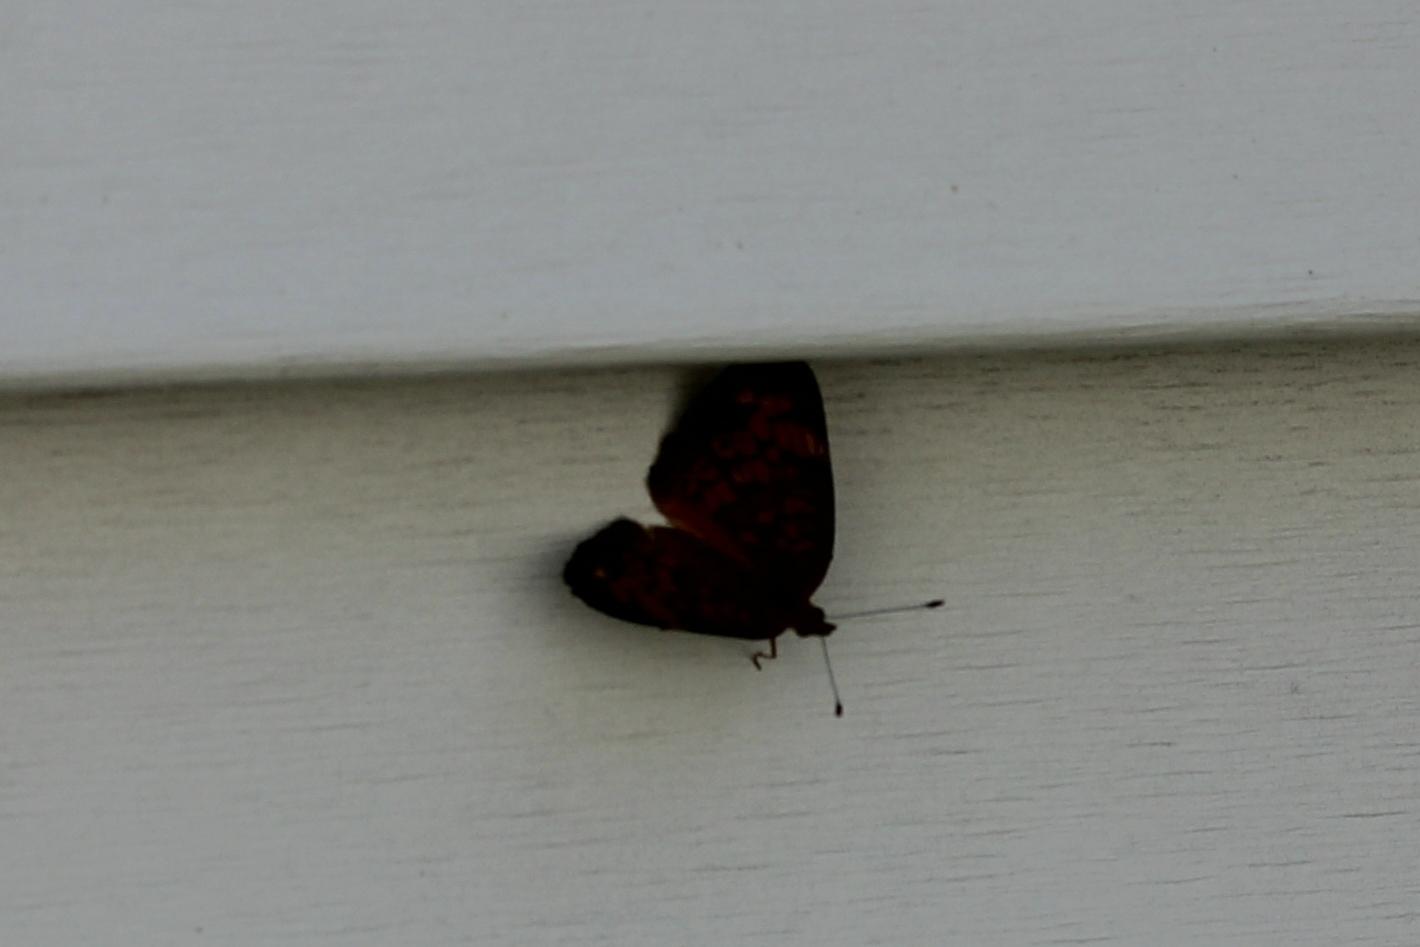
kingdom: Animalia
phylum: Arthropoda
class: Insecta
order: Lepidoptera
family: Nymphalidae
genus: Phyciodes
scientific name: Phyciodes tharos
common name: Pearl crescent
